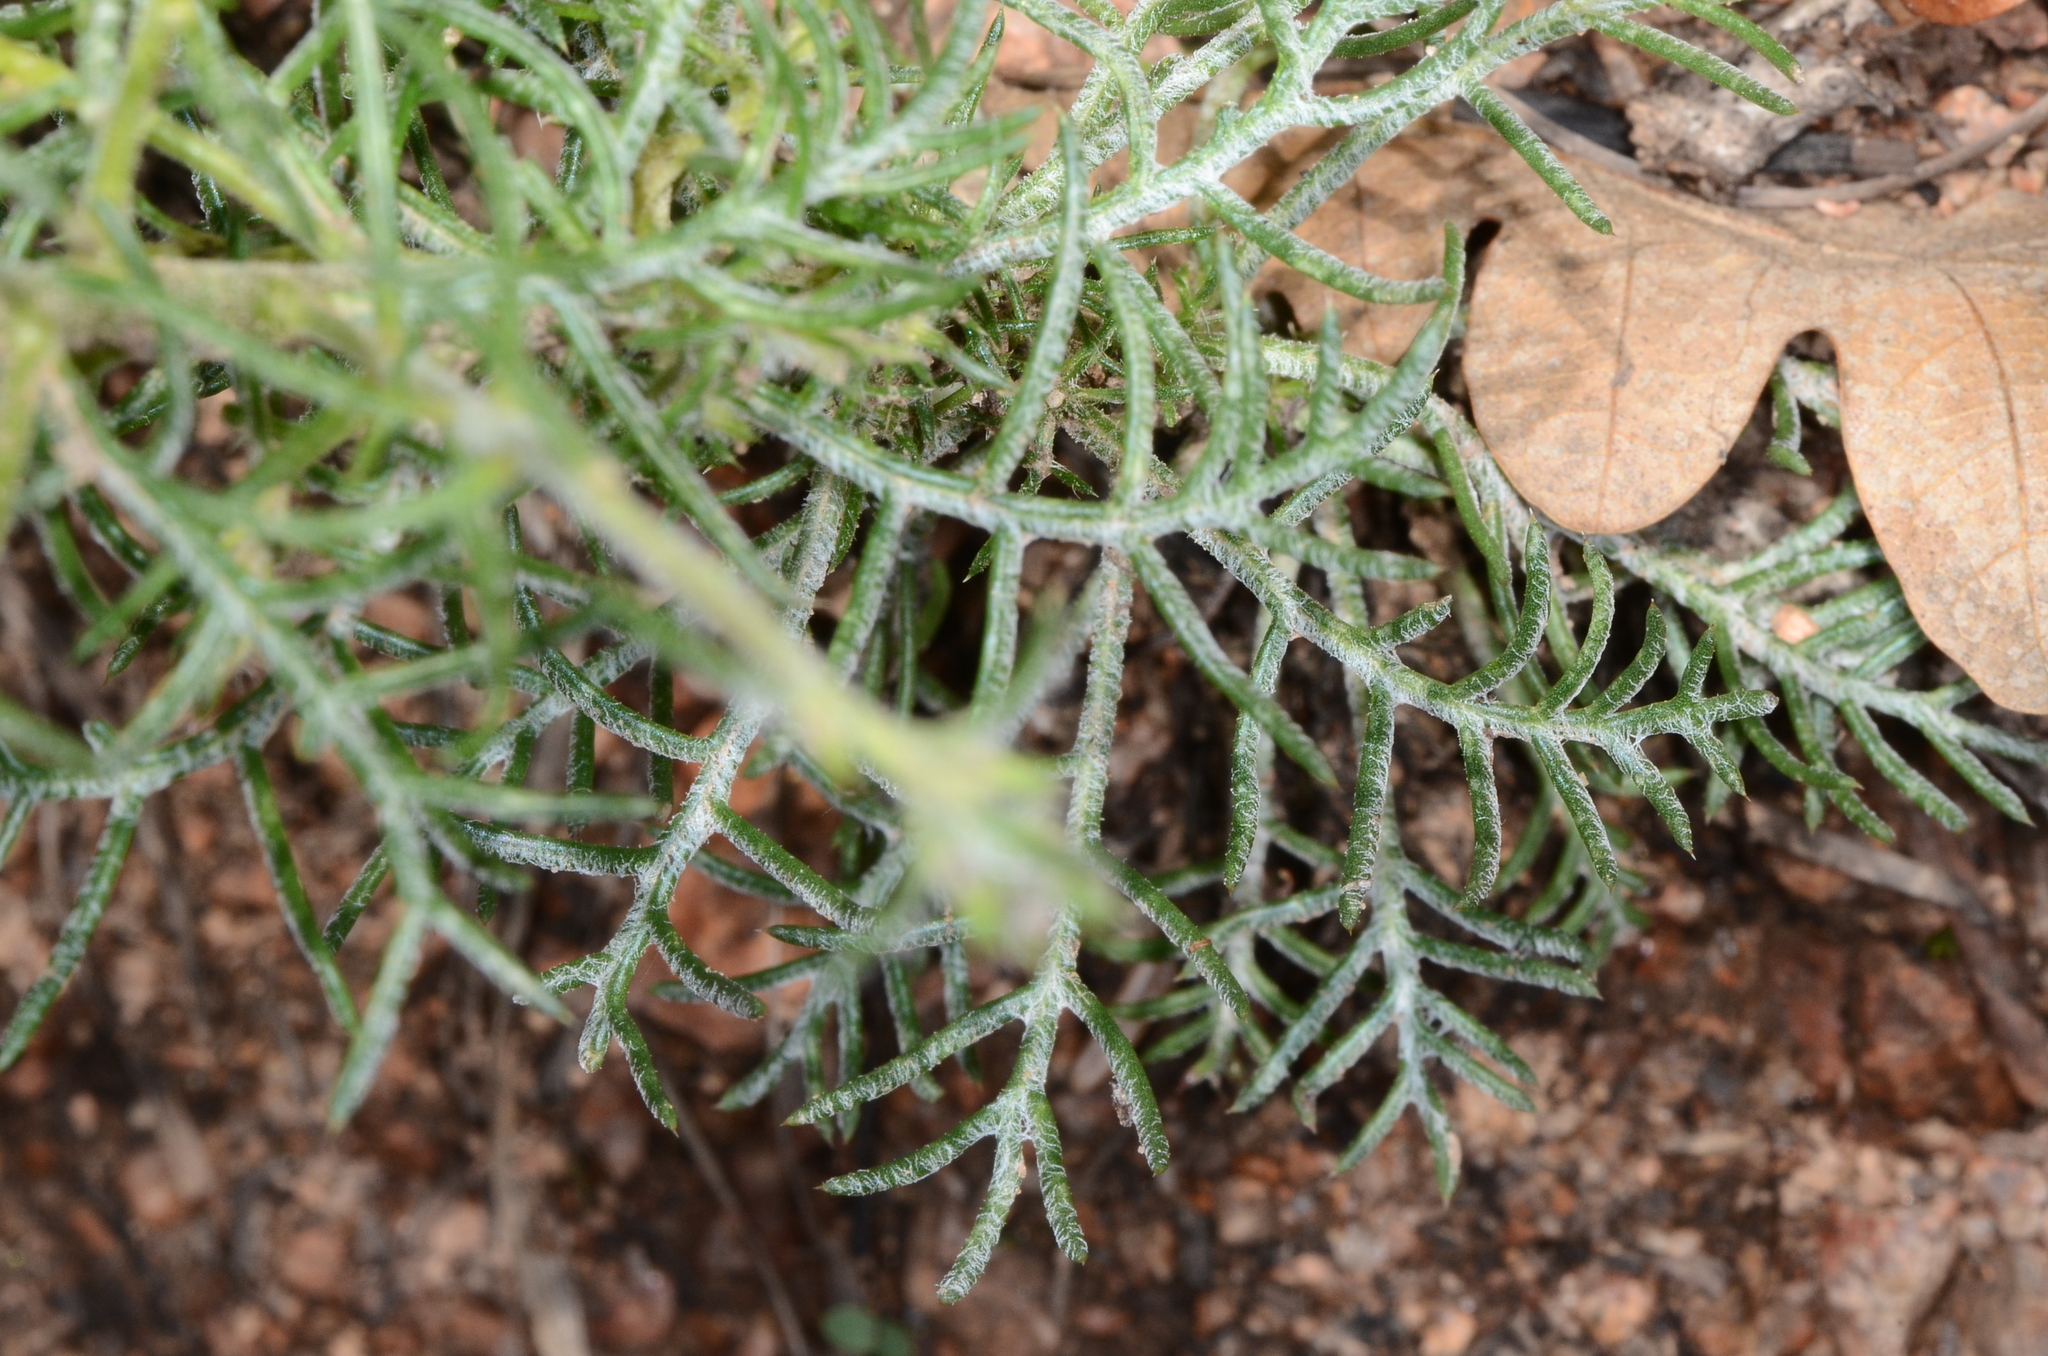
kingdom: Plantae
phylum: Tracheophyta
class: Magnoliopsida
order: Ericales
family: Polemoniaceae
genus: Ipomopsis
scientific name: Ipomopsis aggregata
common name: Scarlet gilia
